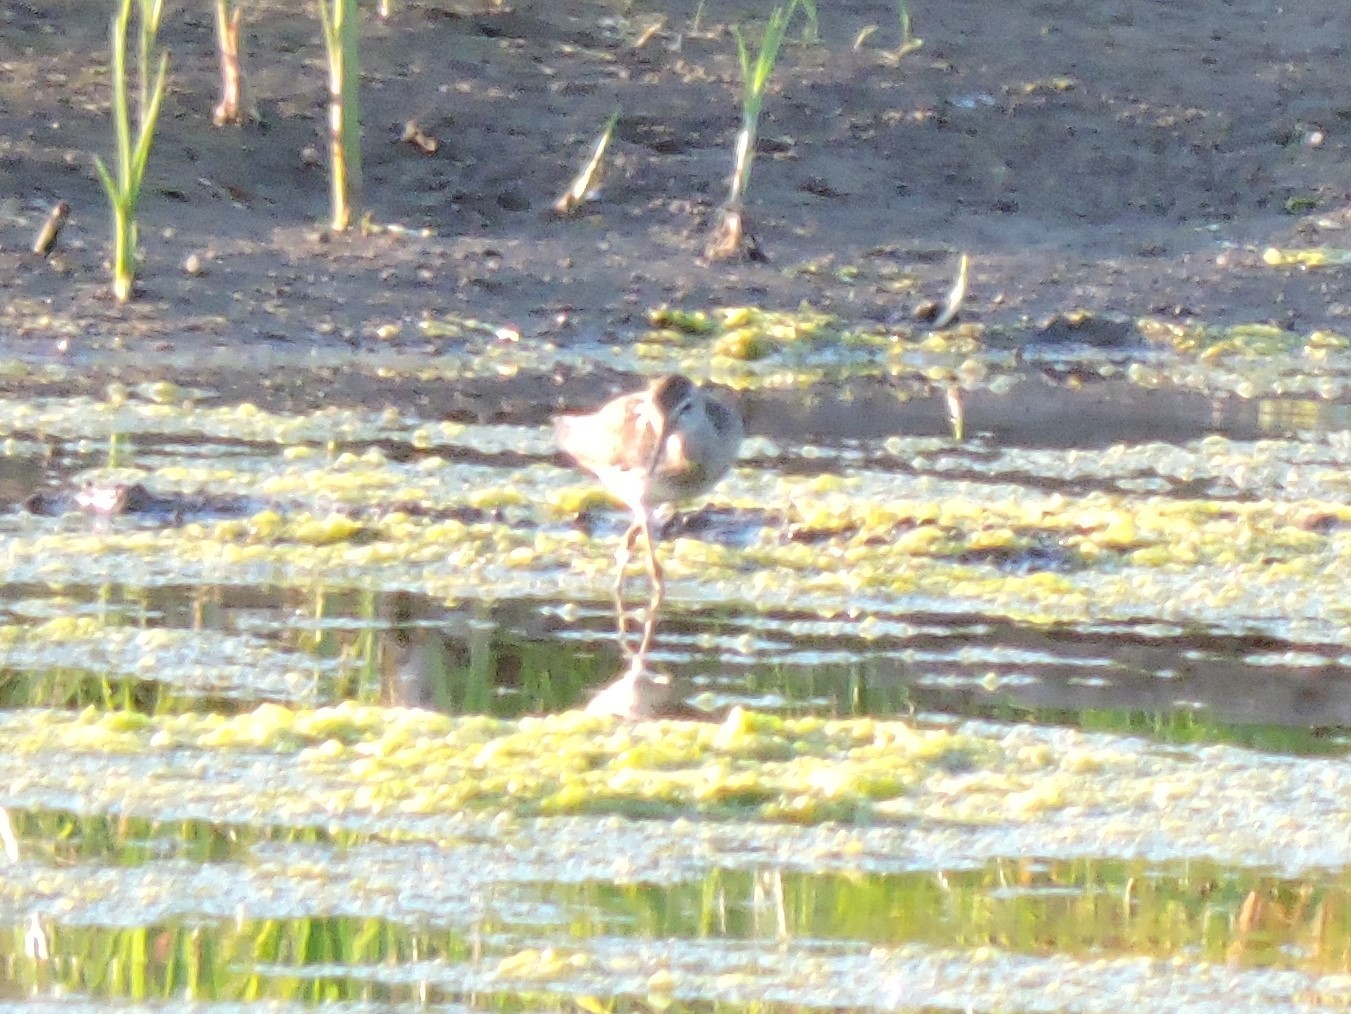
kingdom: Animalia
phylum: Chordata
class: Aves
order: Charadriiformes
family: Scolopacidae
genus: Tringa
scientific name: Tringa glareola
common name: Wood sandpiper
